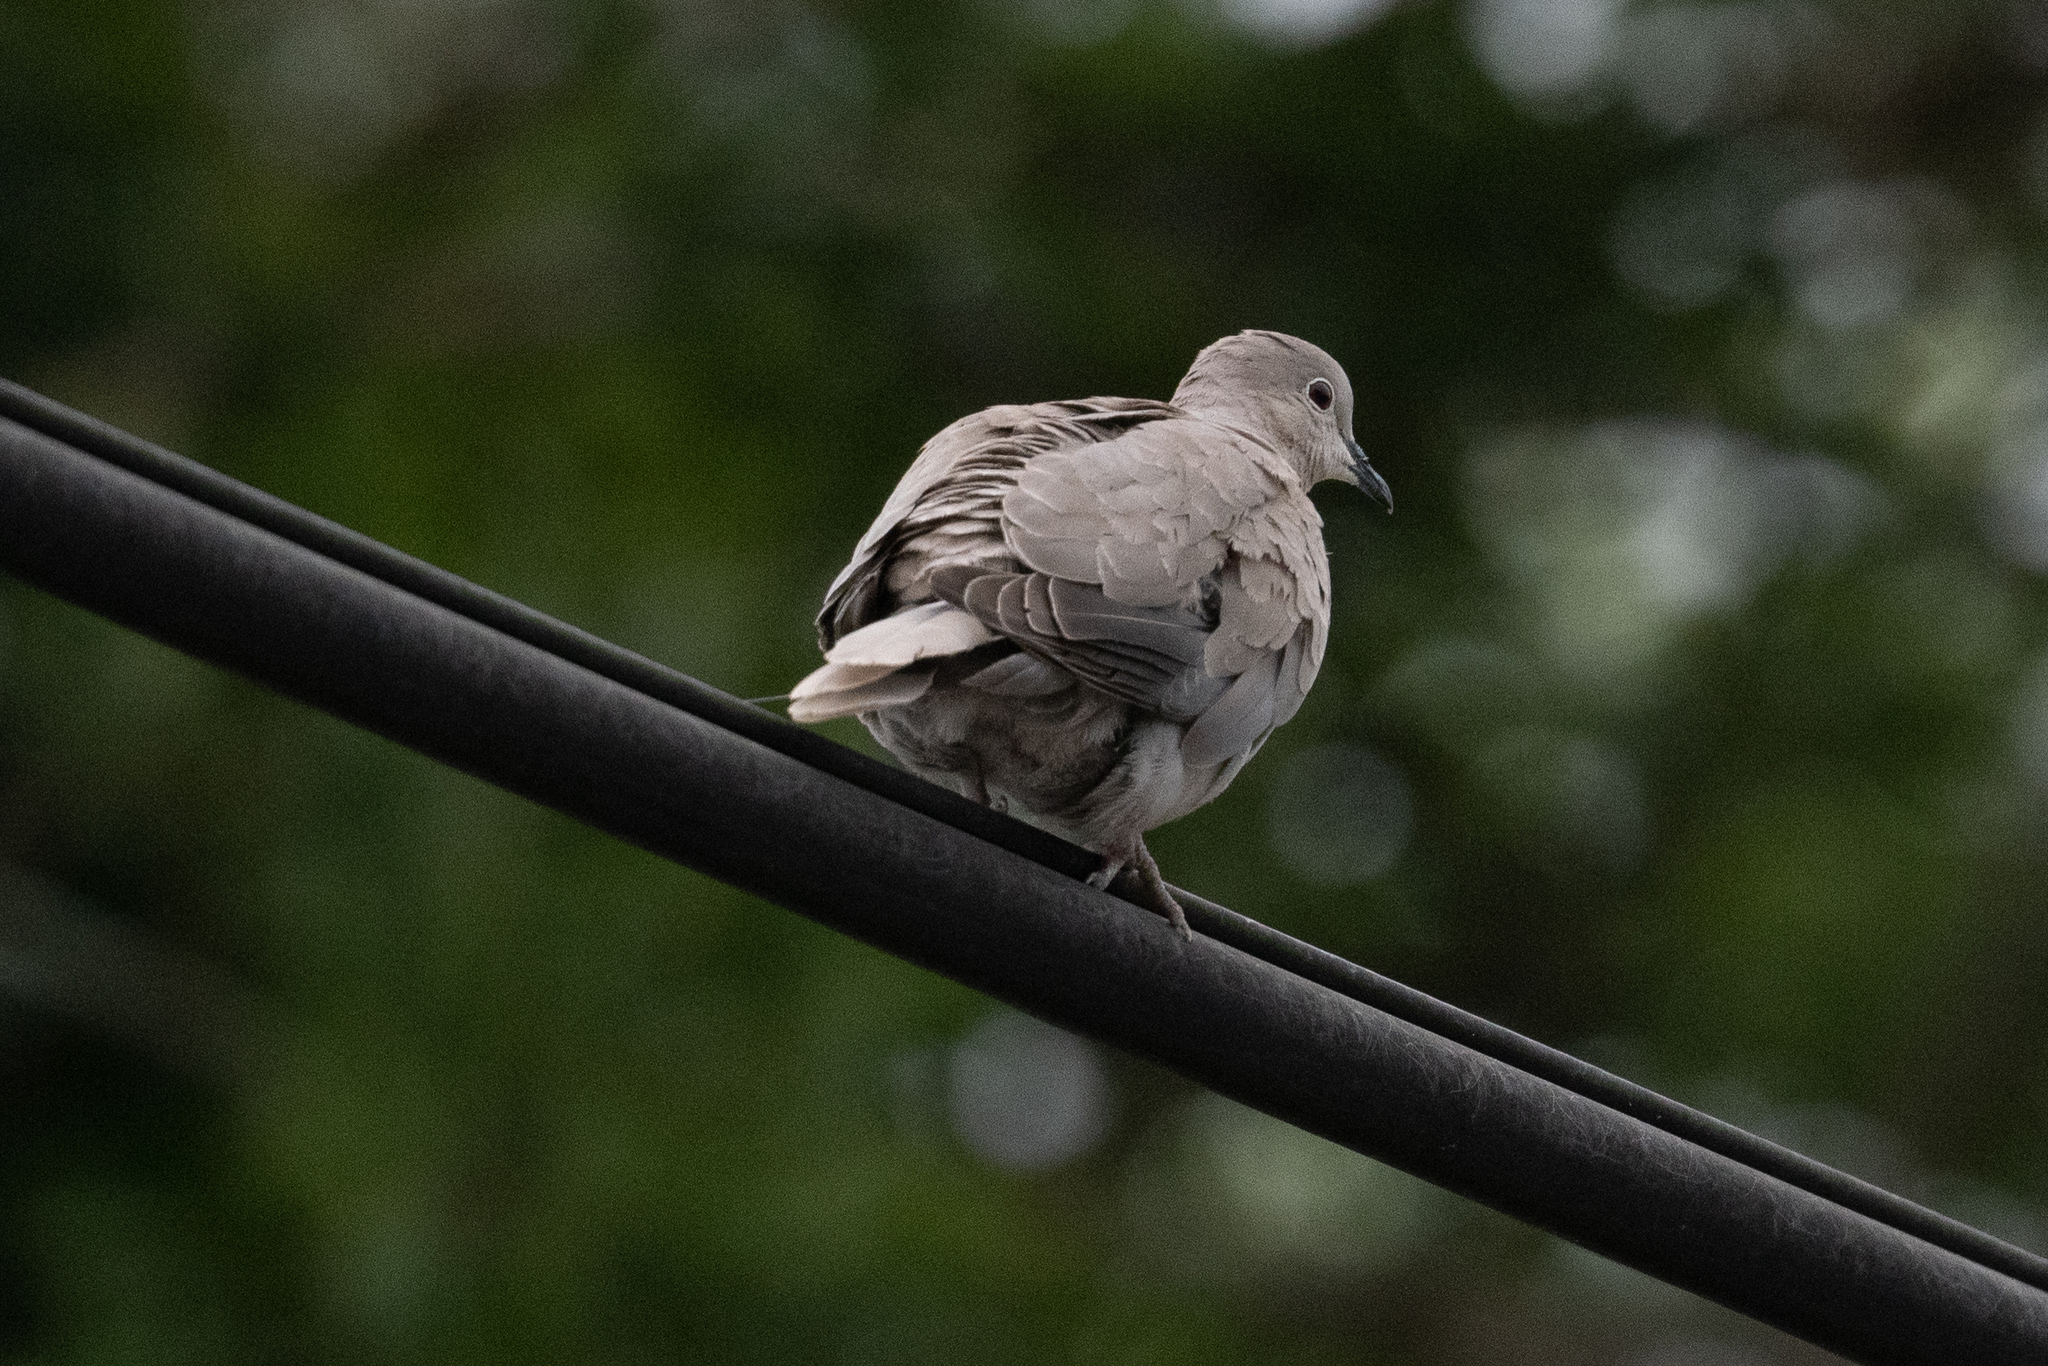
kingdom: Animalia
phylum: Chordata
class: Aves
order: Columbiformes
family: Columbidae
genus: Streptopelia
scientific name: Streptopelia decaocto
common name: Eurasian collared dove
